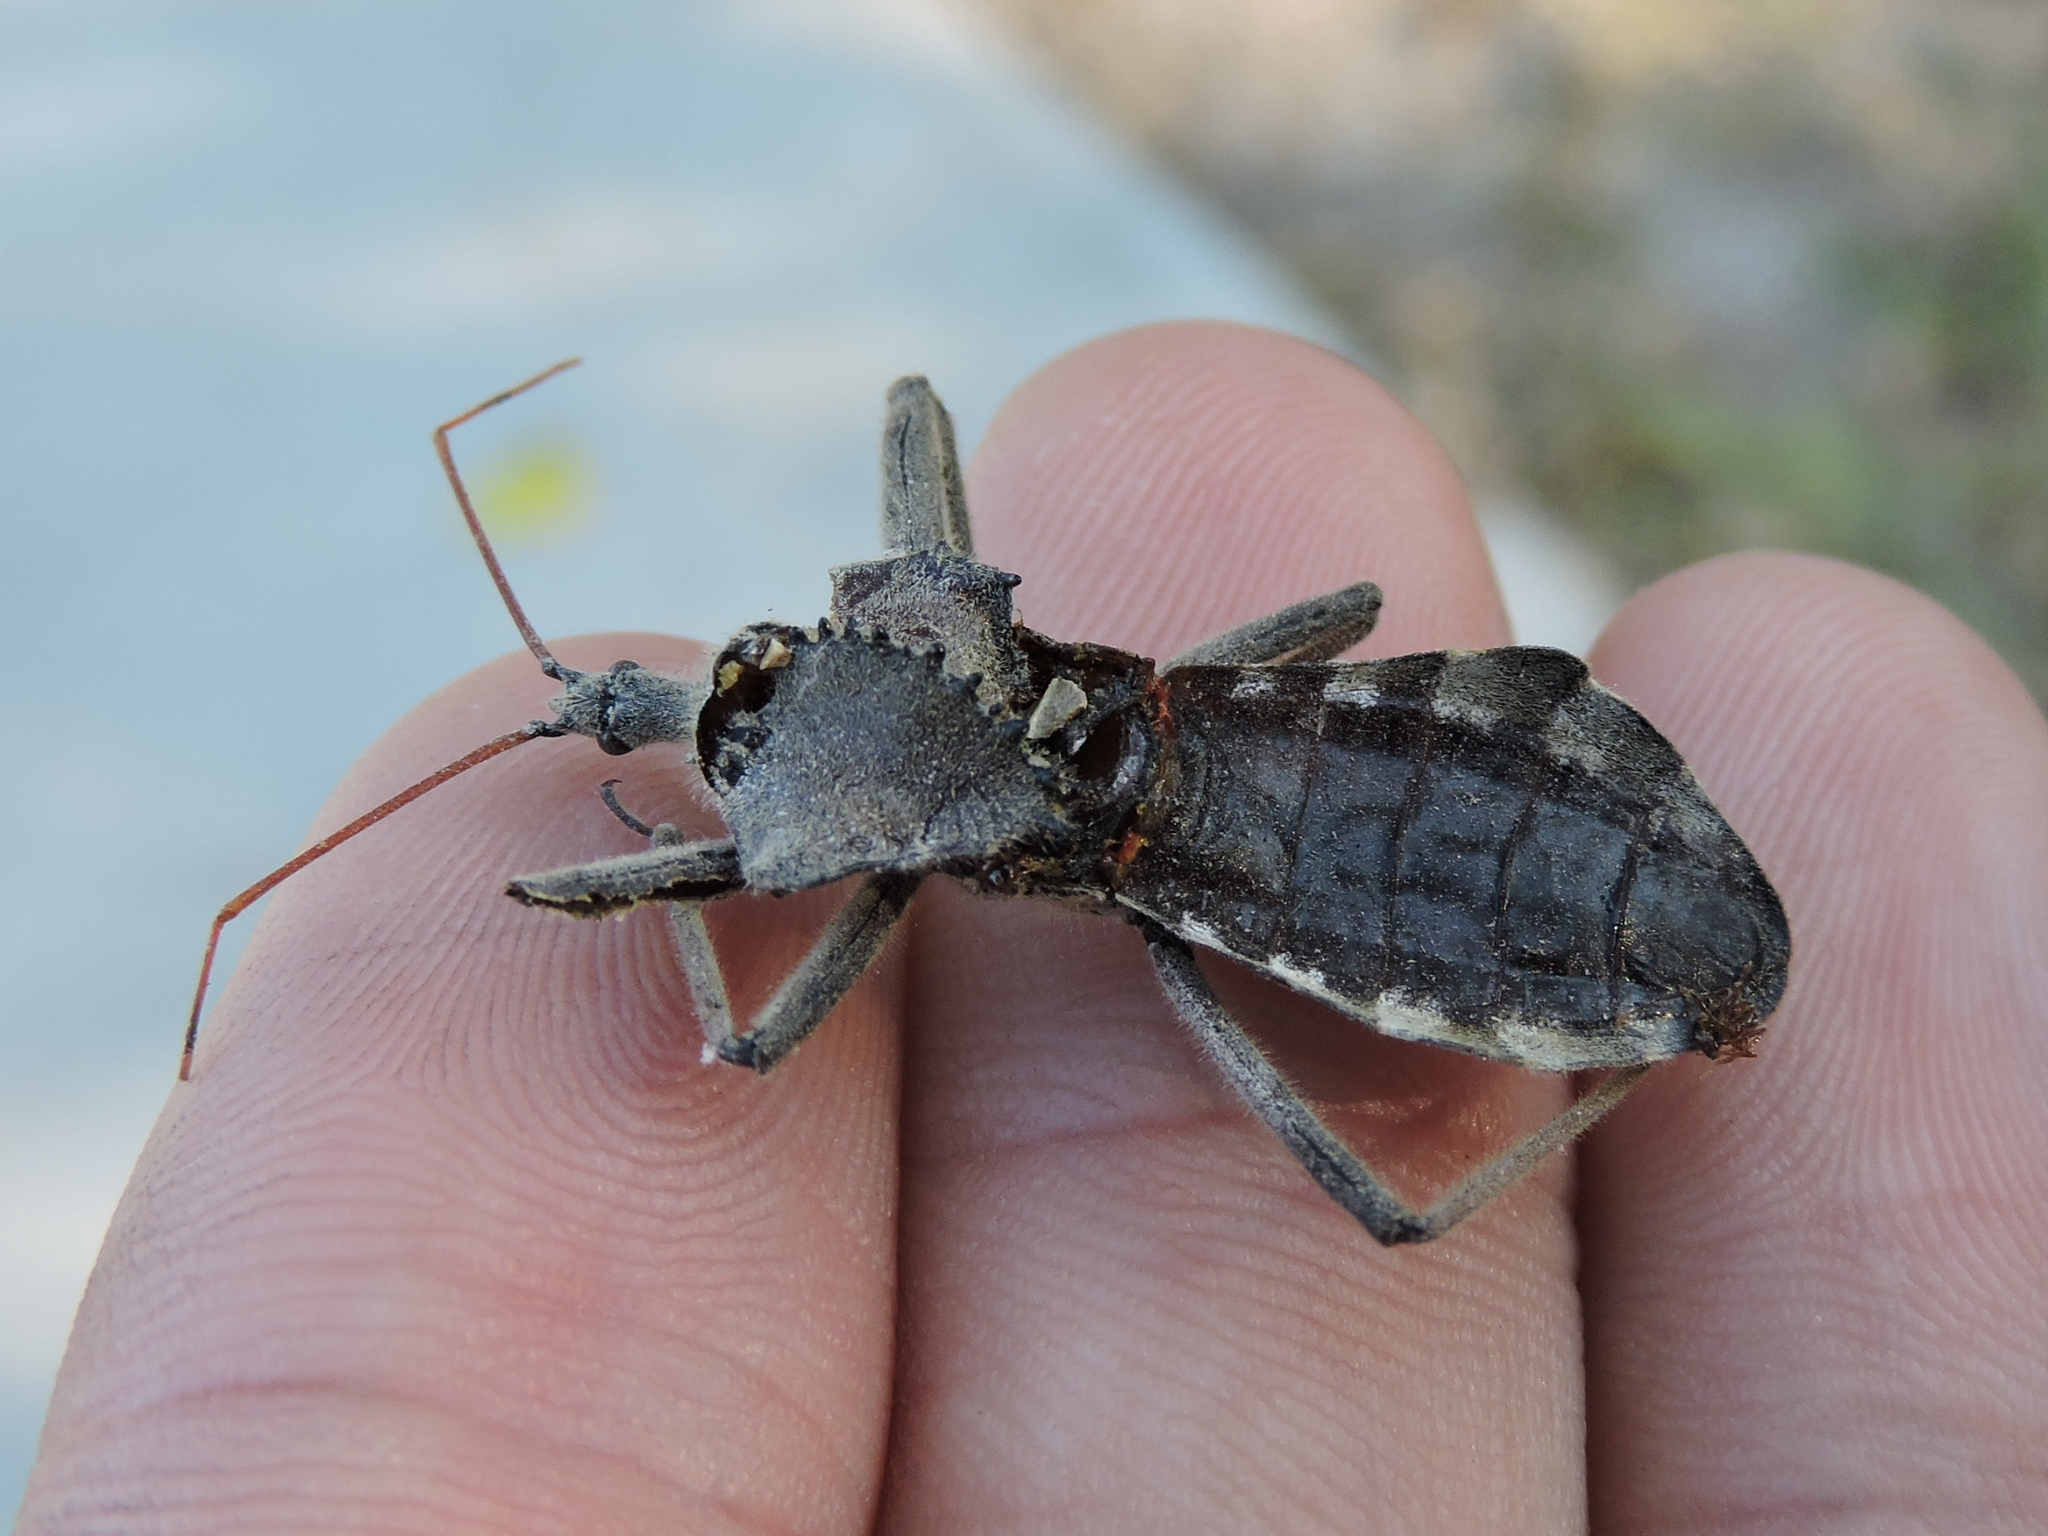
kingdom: Animalia
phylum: Arthropoda
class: Insecta
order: Hemiptera
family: Reduviidae
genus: Arilus
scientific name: Arilus cristatus
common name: North american wheel bug
